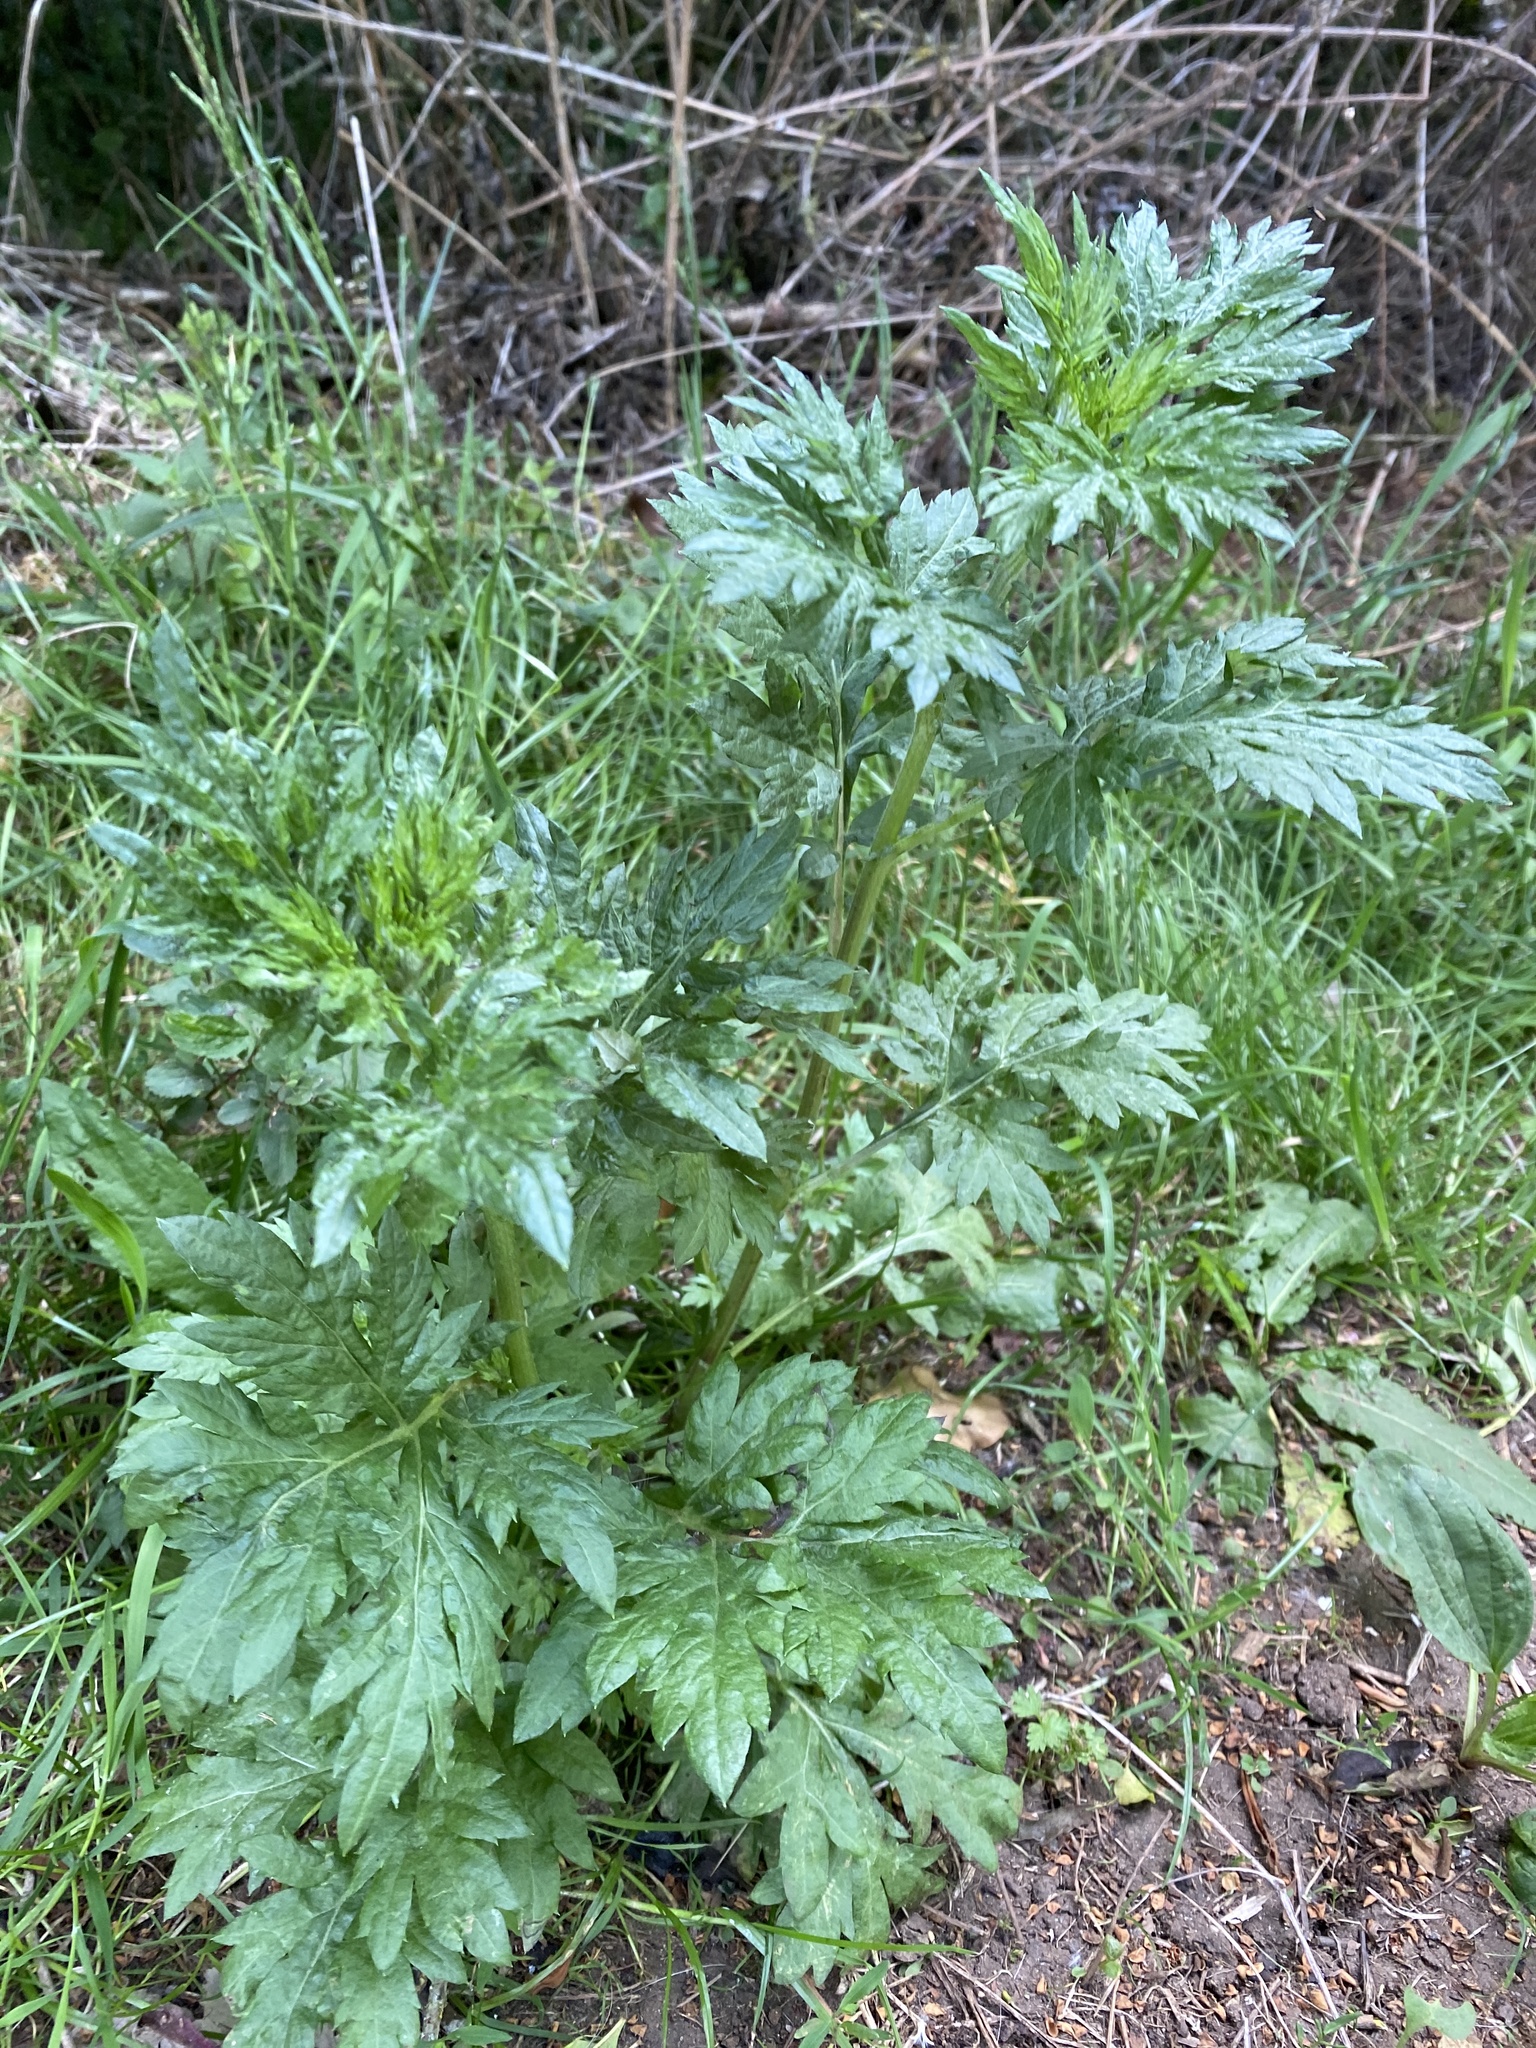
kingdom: Plantae
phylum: Tracheophyta
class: Magnoliopsida
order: Asterales
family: Asteraceae
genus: Artemisia
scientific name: Artemisia vulgaris
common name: Mugwort
